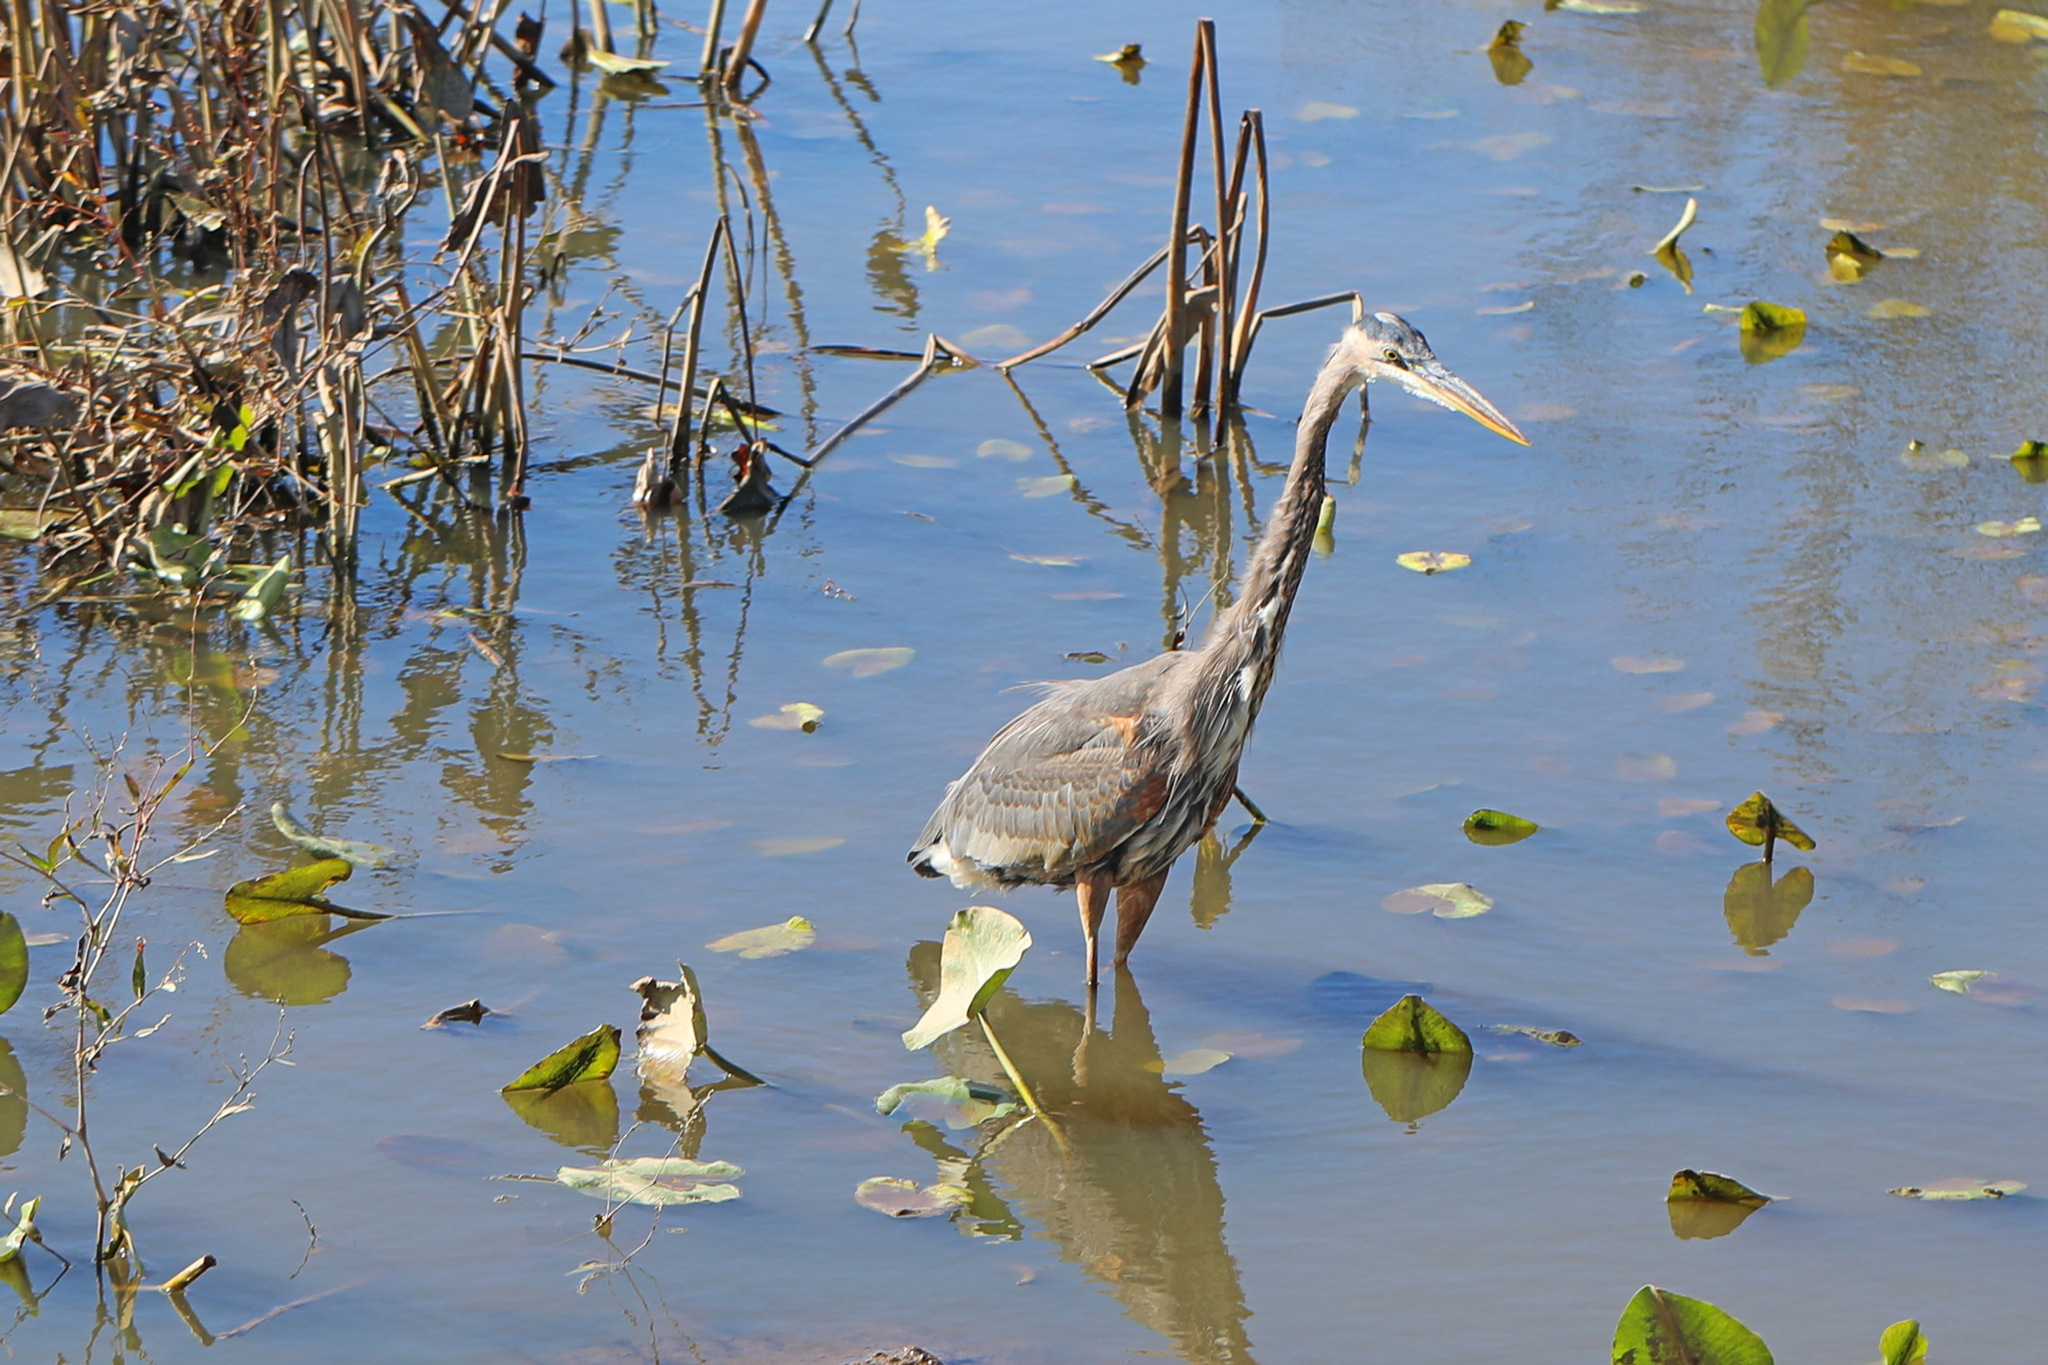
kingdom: Animalia
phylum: Chordata
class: Aves
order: Pelecaniformes
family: Ardeidae
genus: Ardea
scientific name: Ardea herodias
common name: Great blue heron
